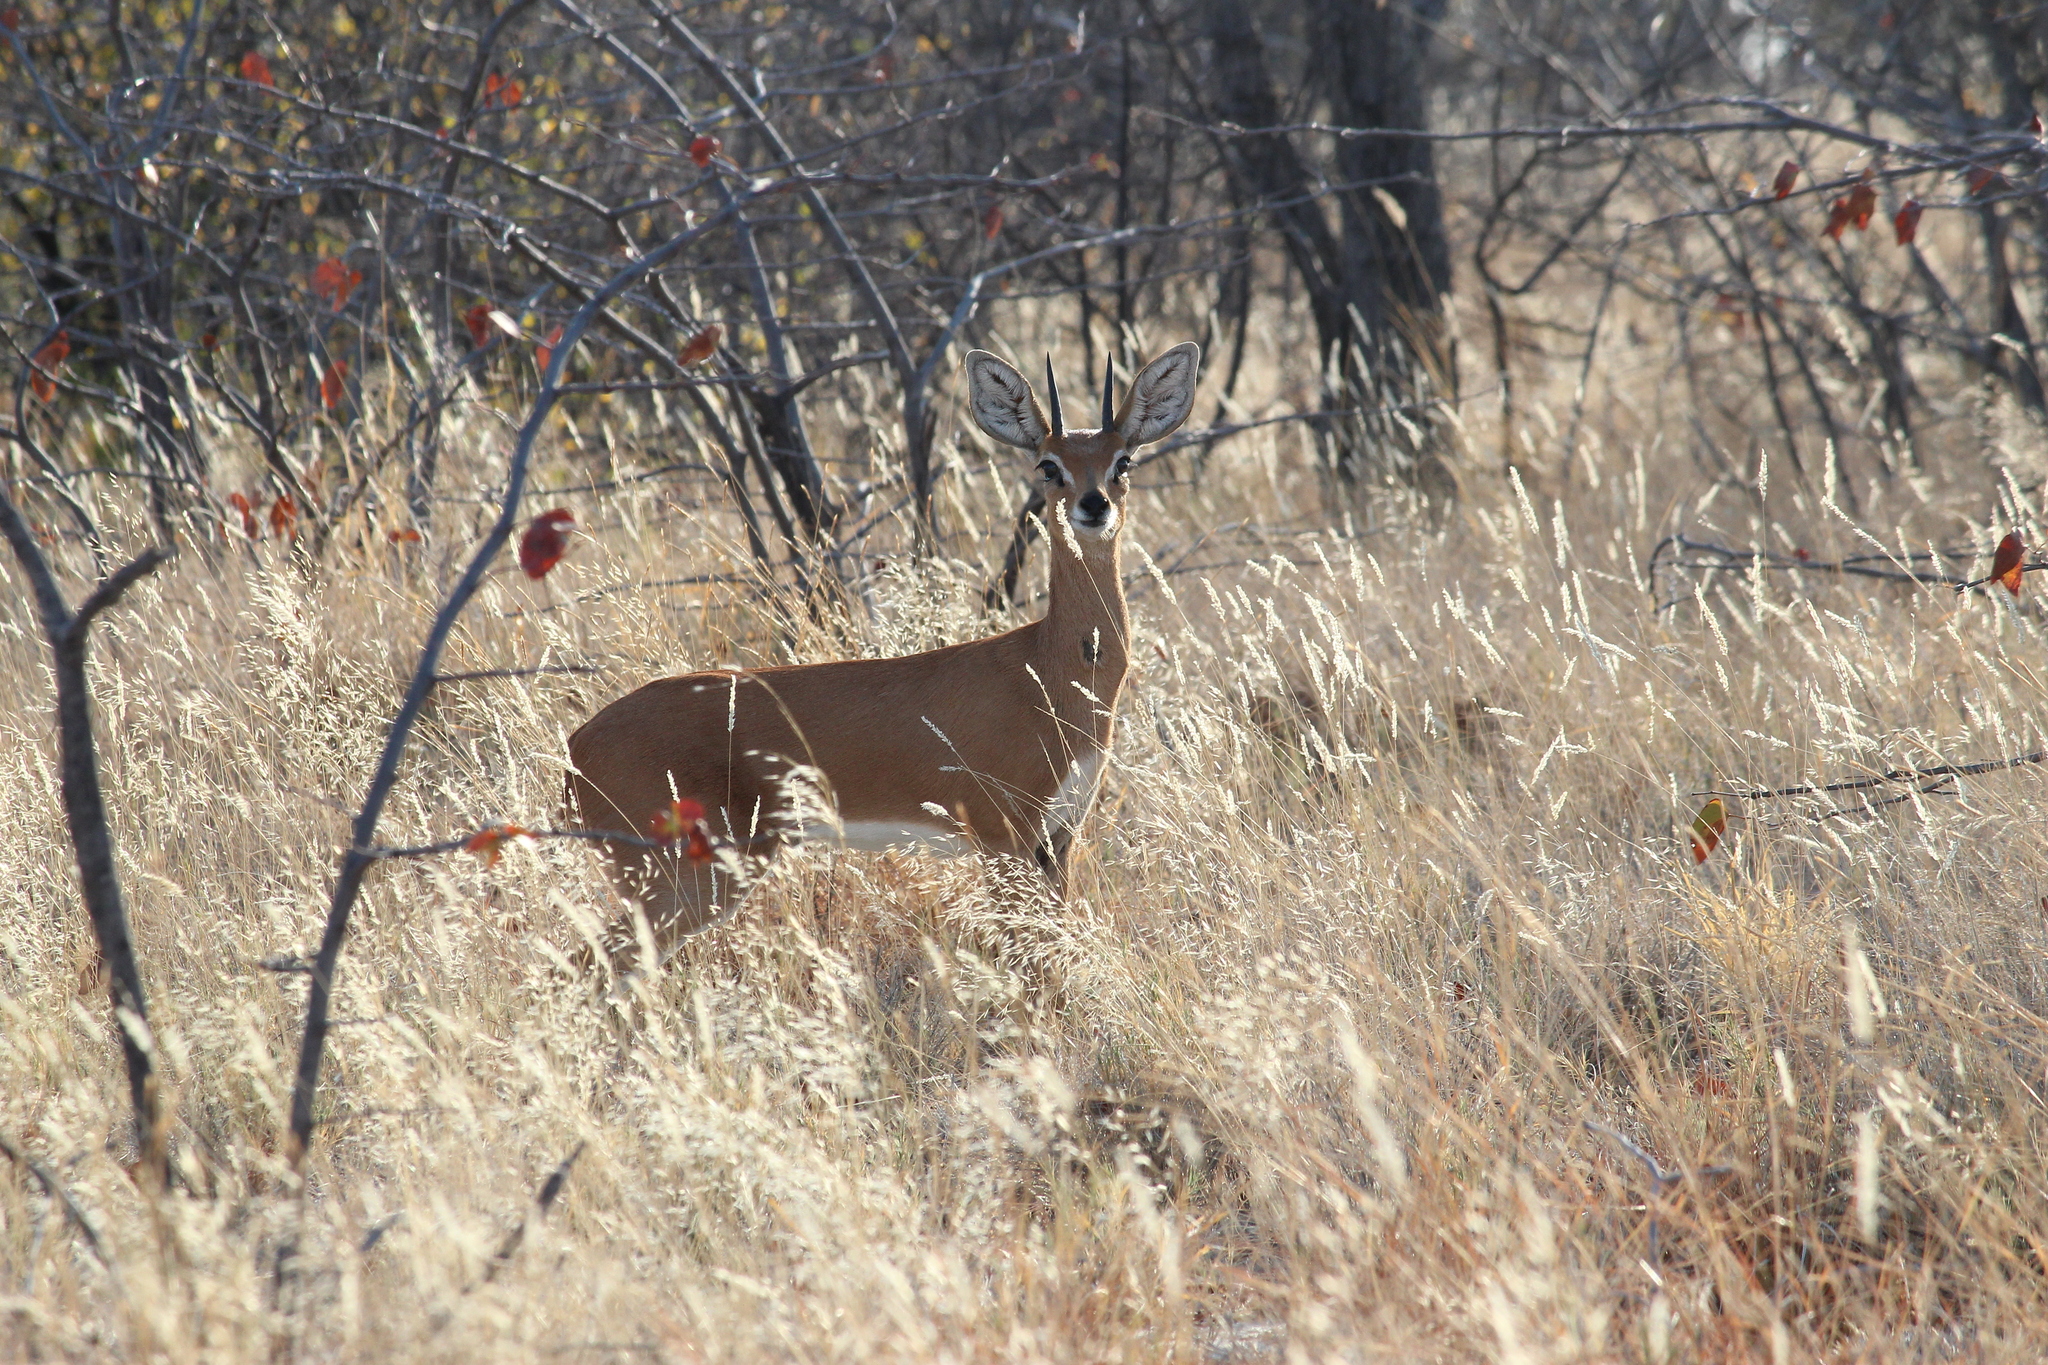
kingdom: Animalia
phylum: Chordata
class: Mammalia
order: Artiodactyla
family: Bovidae
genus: Raphicerus
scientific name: Raphicerus campestris
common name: Steenbok
